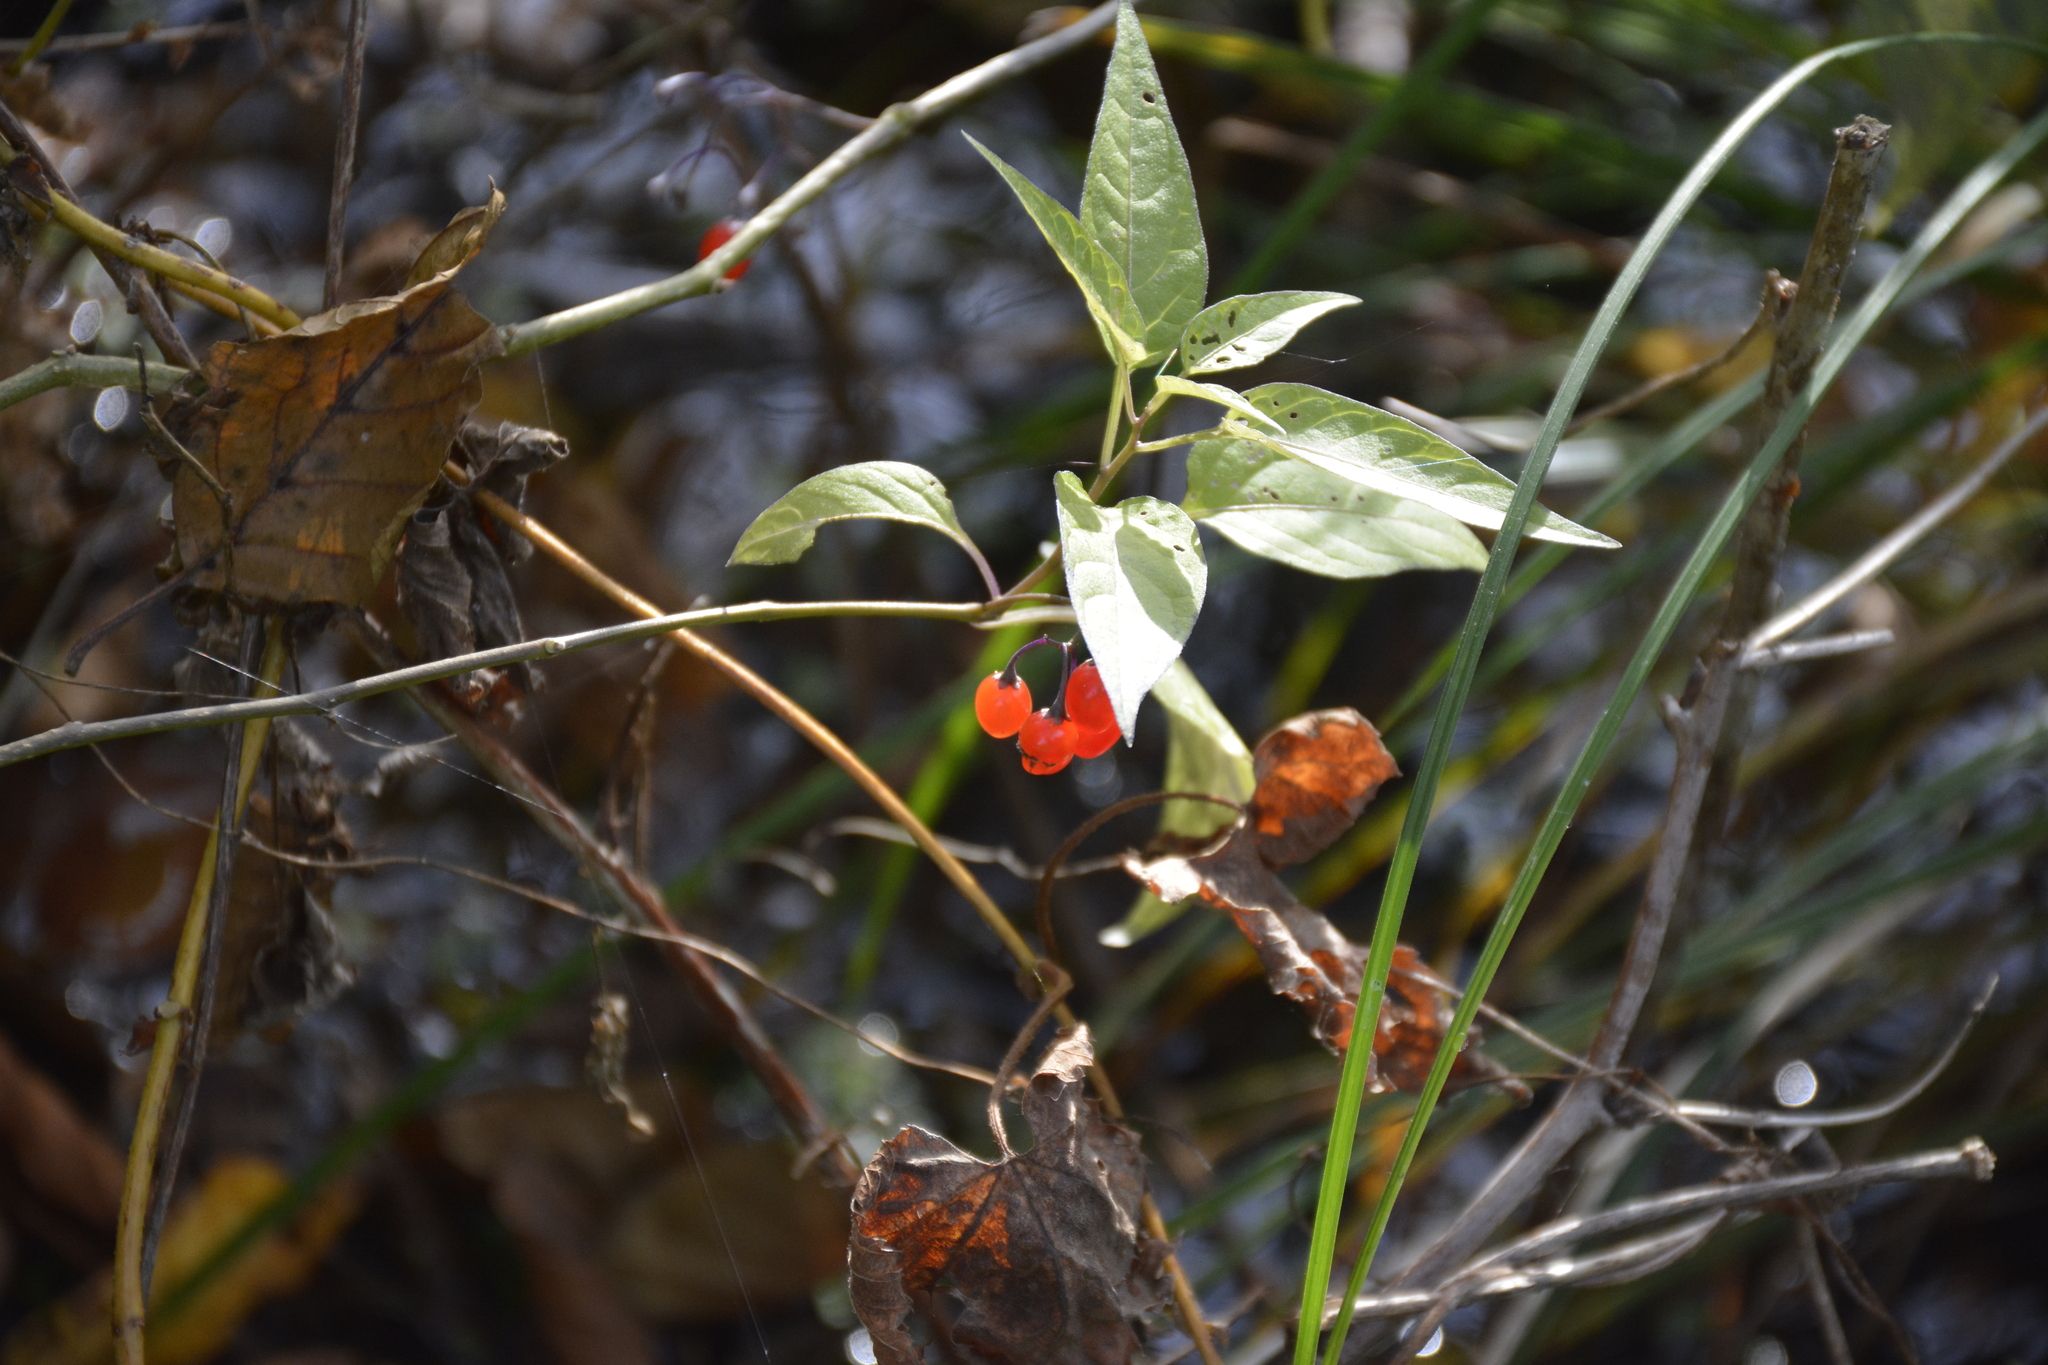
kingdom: Plantae
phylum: Tracheophyta
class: Magnoliopsida
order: Solanales
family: Solanaceae
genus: Solanum
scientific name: Solanum dulcamara
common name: Climbing nightshade
